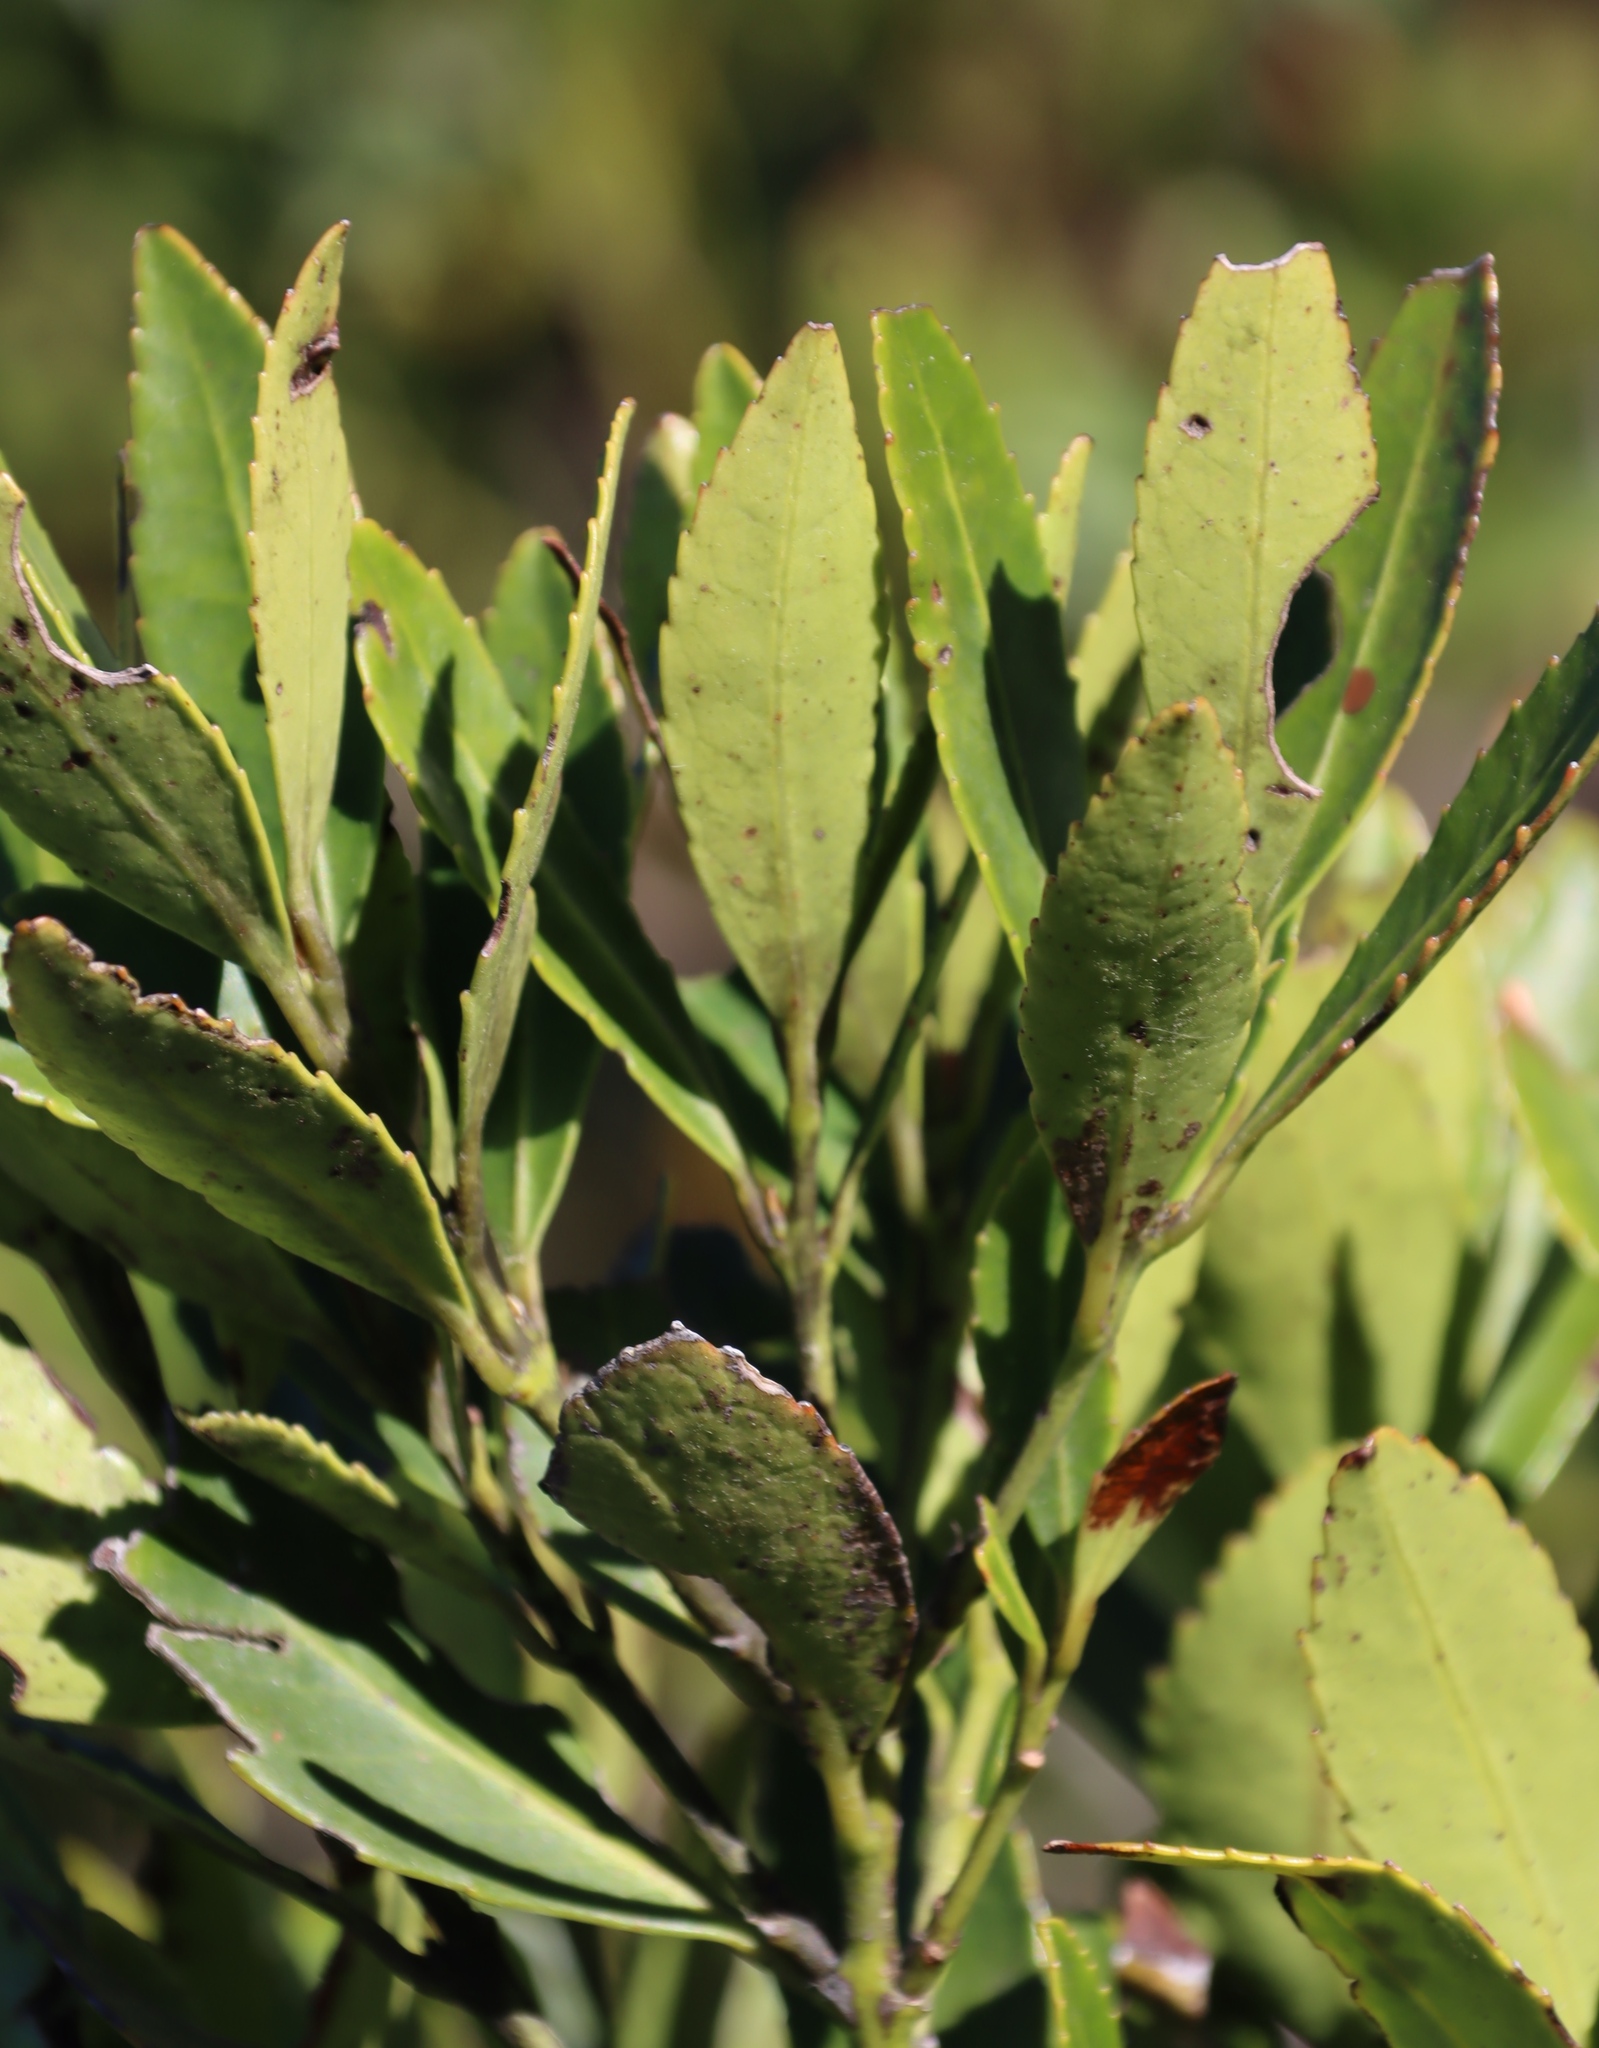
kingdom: Plantae
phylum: Tracheophyta
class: Magnoliopsida
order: Celastrales
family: Celastraceae
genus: Elaeodendron
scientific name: Elaeodendron schinoides
